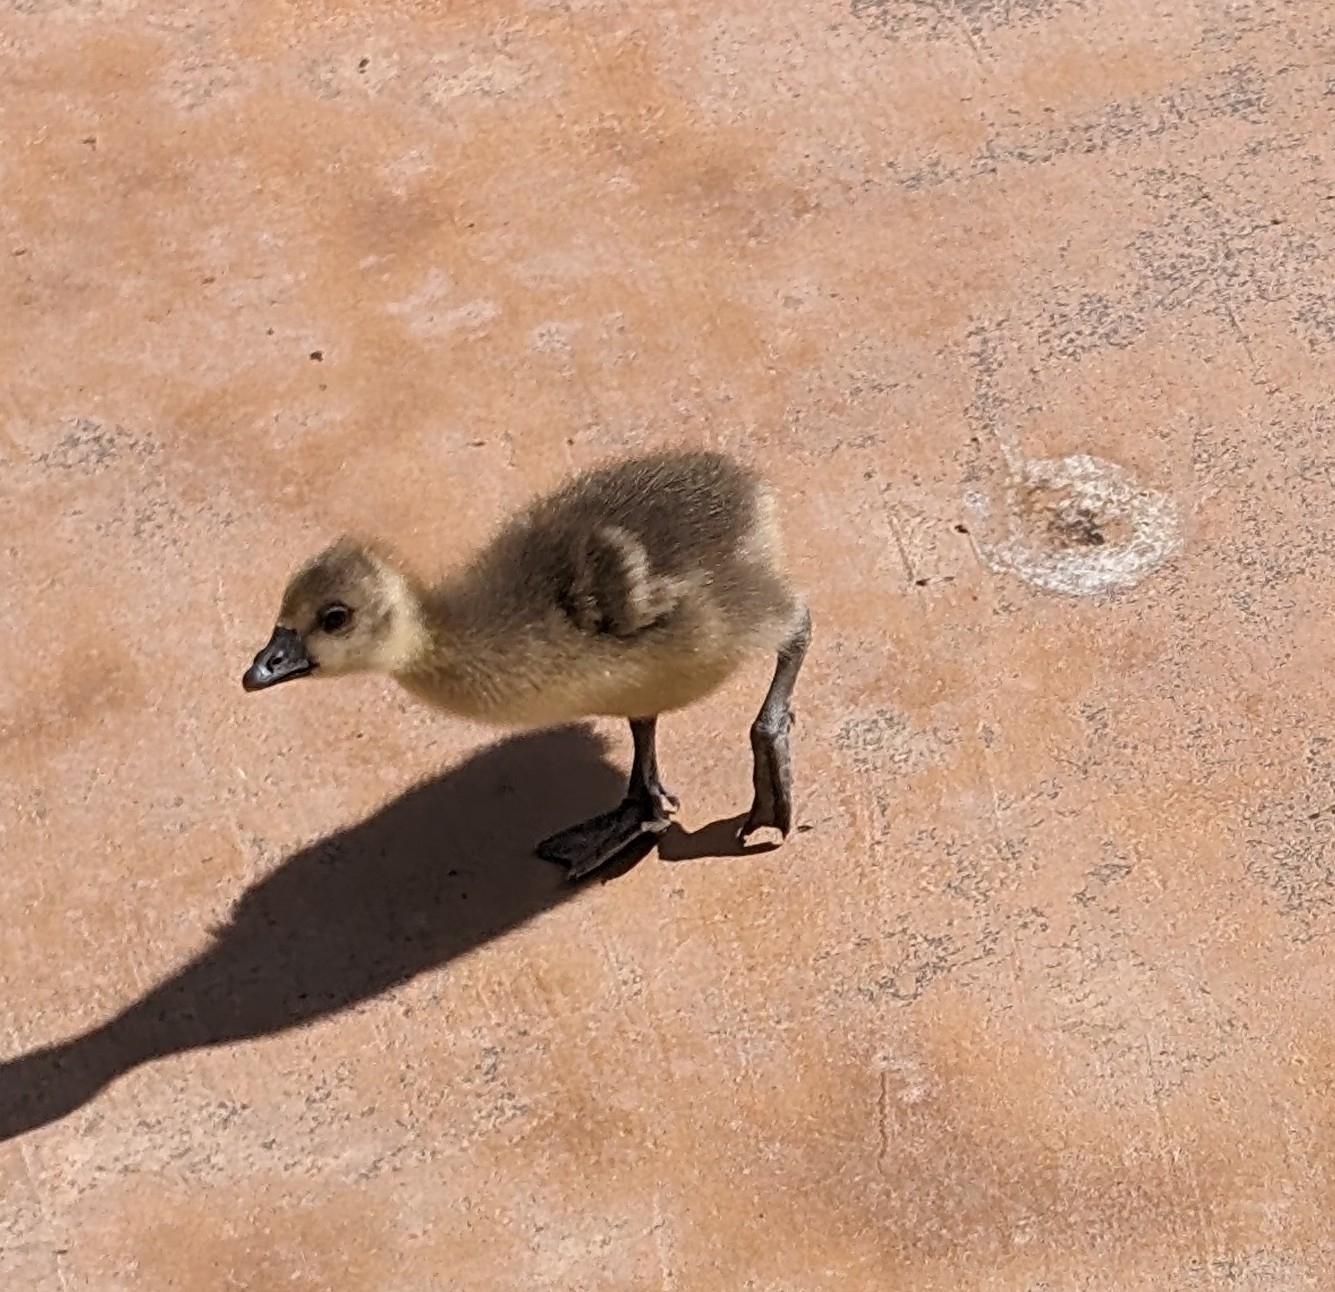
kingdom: Animalia
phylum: Chordata
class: Aves
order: Anseriformes
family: Anatidae
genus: Anser
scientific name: Anser anser
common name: Greylag goose
